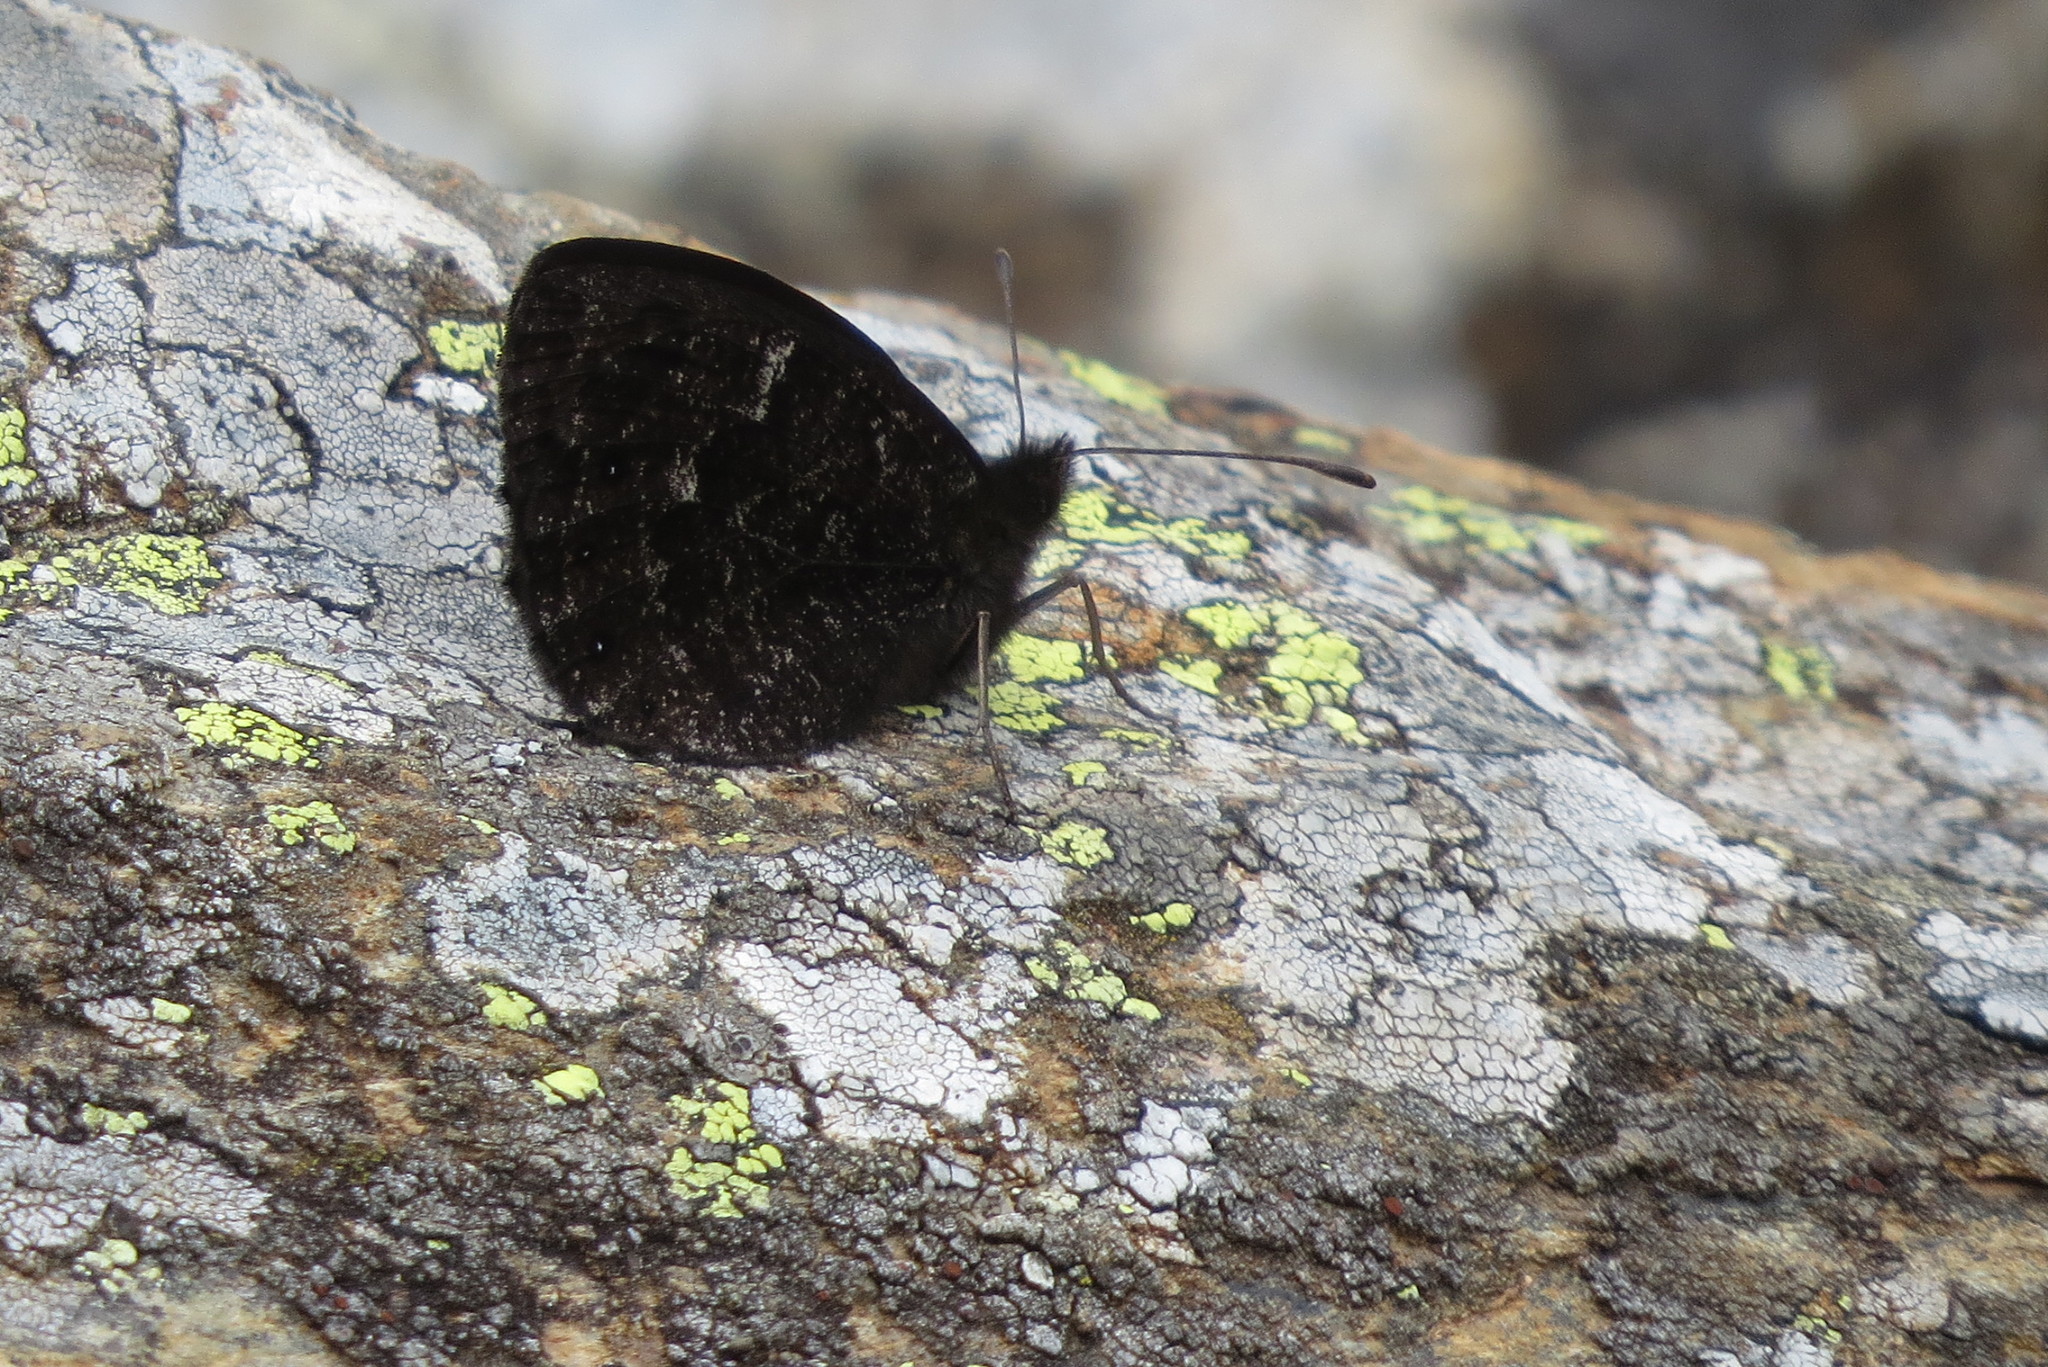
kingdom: Animalia
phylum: Arthropoda
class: Insecta
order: Lepidoptera
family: Nymphalidae
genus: Erebia
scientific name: Erebia montanus
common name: Marbled ringlet
